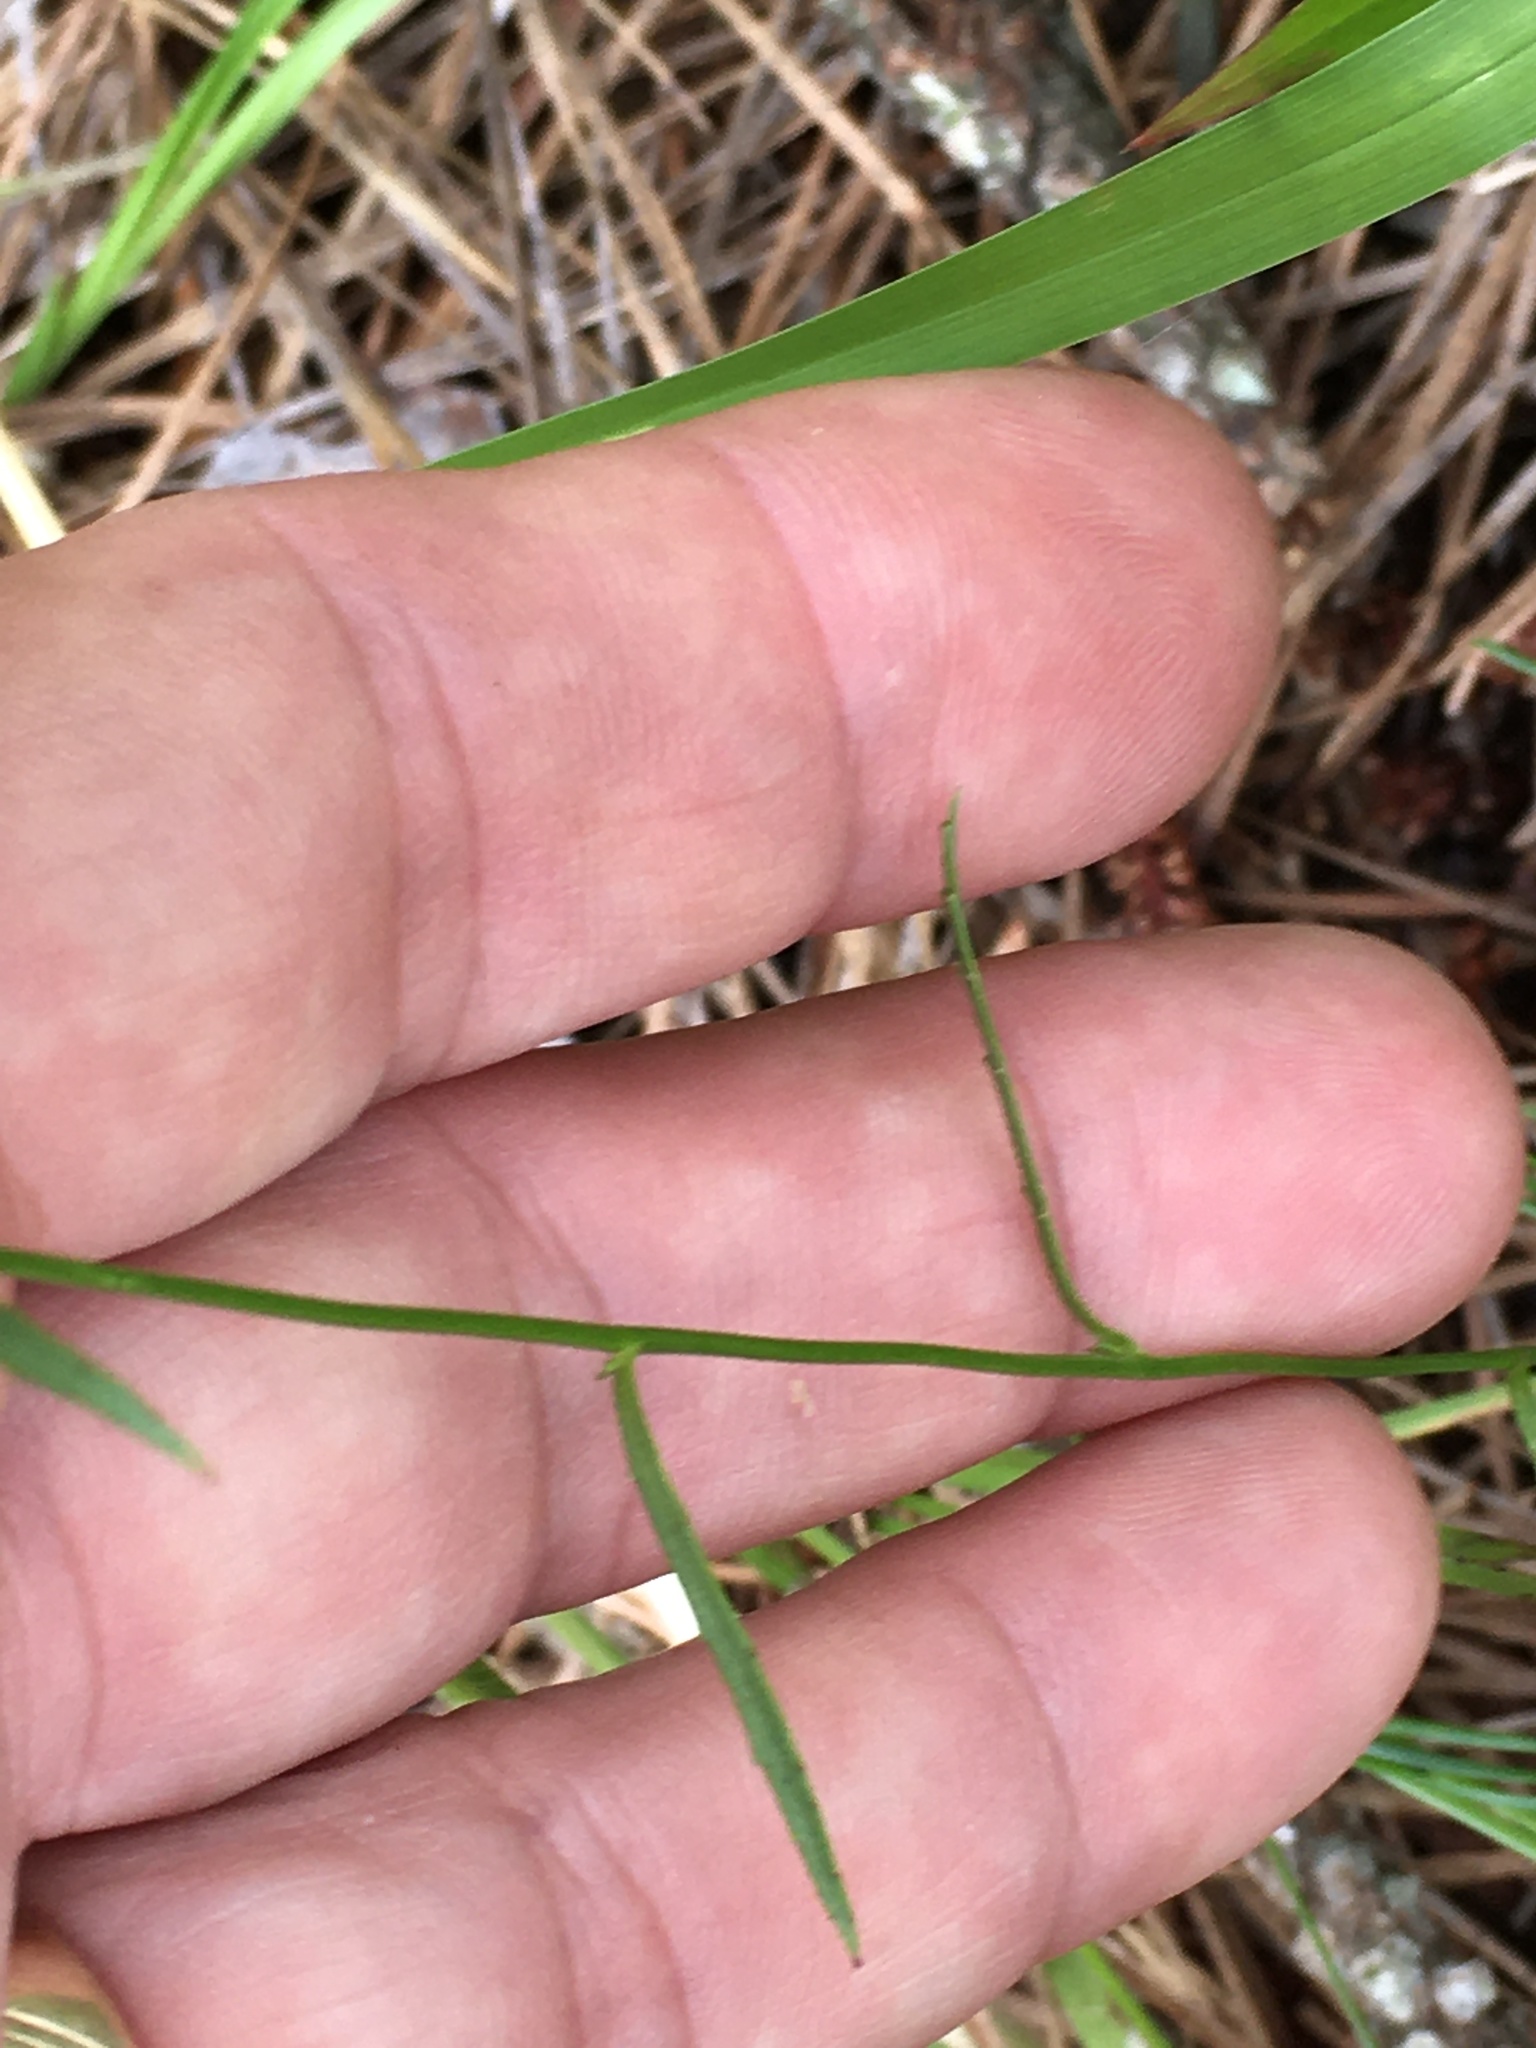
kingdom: Plantae
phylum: Tracheophyta
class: Magnoliopsida
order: Asterales
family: Campanulaceae
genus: Lobelia
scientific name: Lobelia nuttallii
